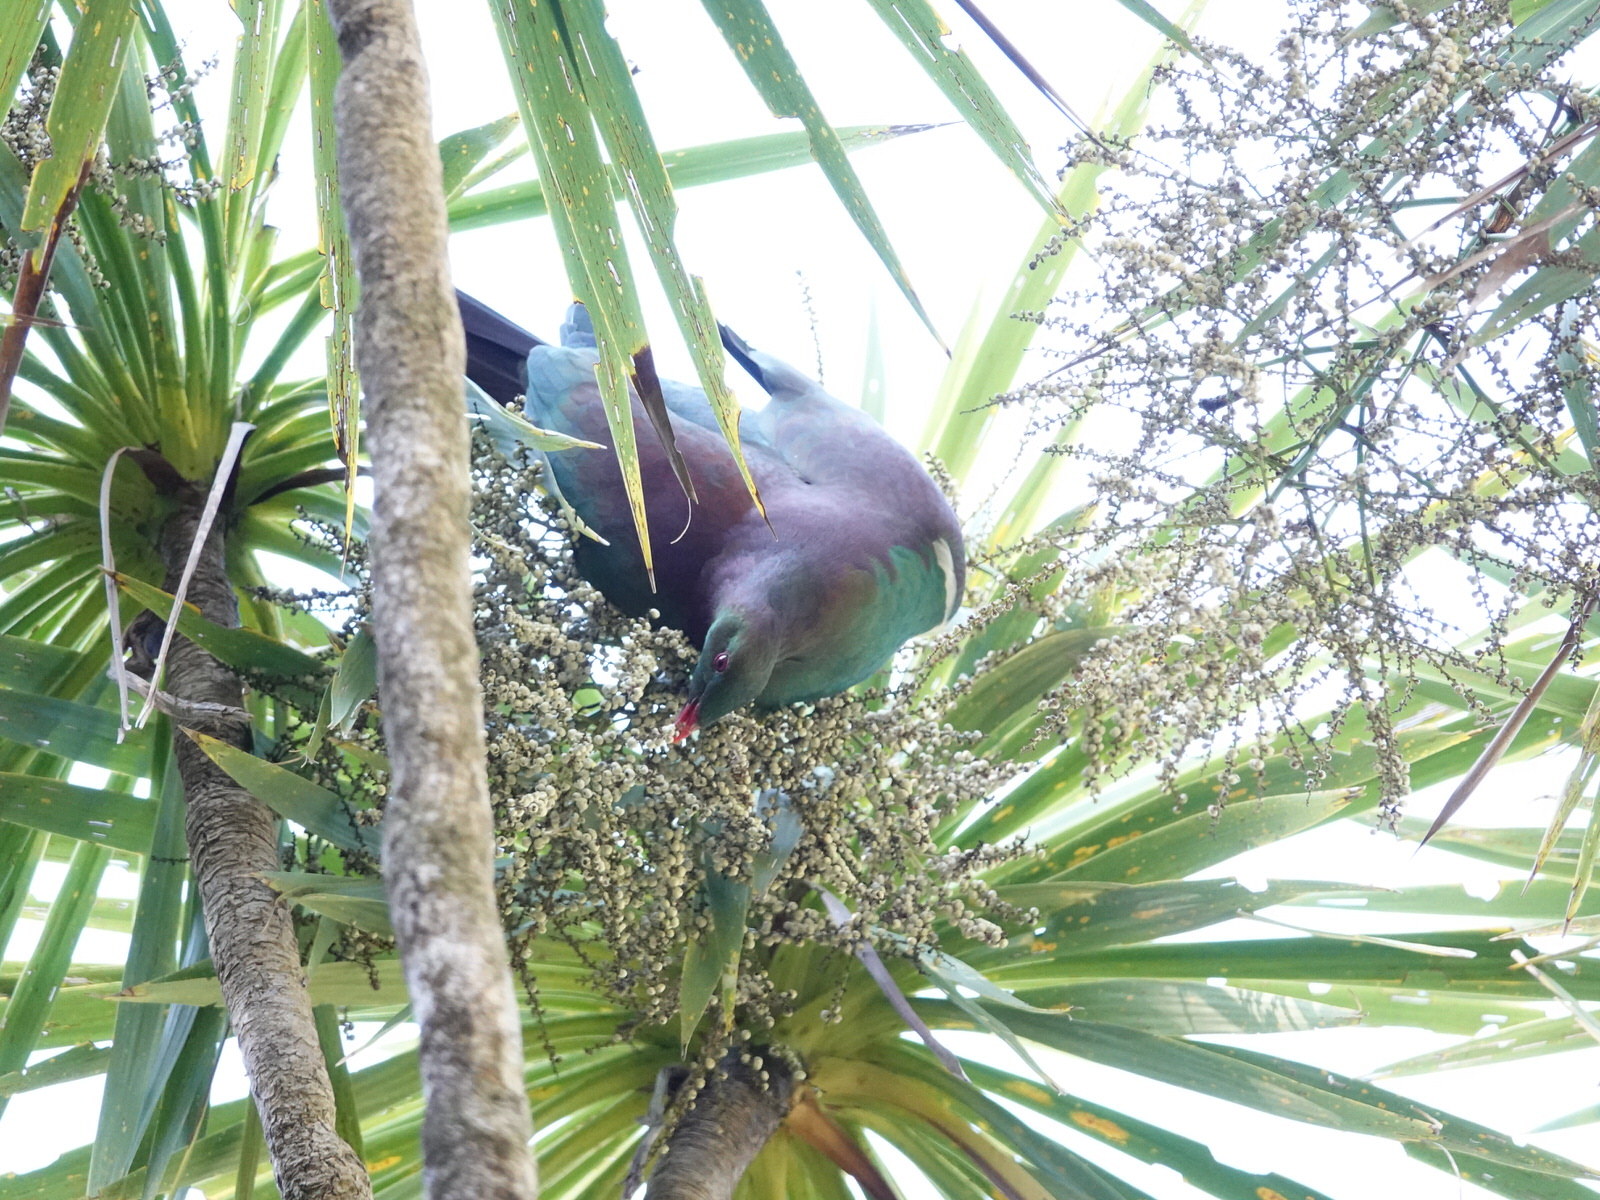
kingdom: Animalia
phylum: Chordata
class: Aves
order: Columbiformes
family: Columbidae
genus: Hemiphaga
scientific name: Hemiphaga novaeseelandiae
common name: New zealand pigeon
